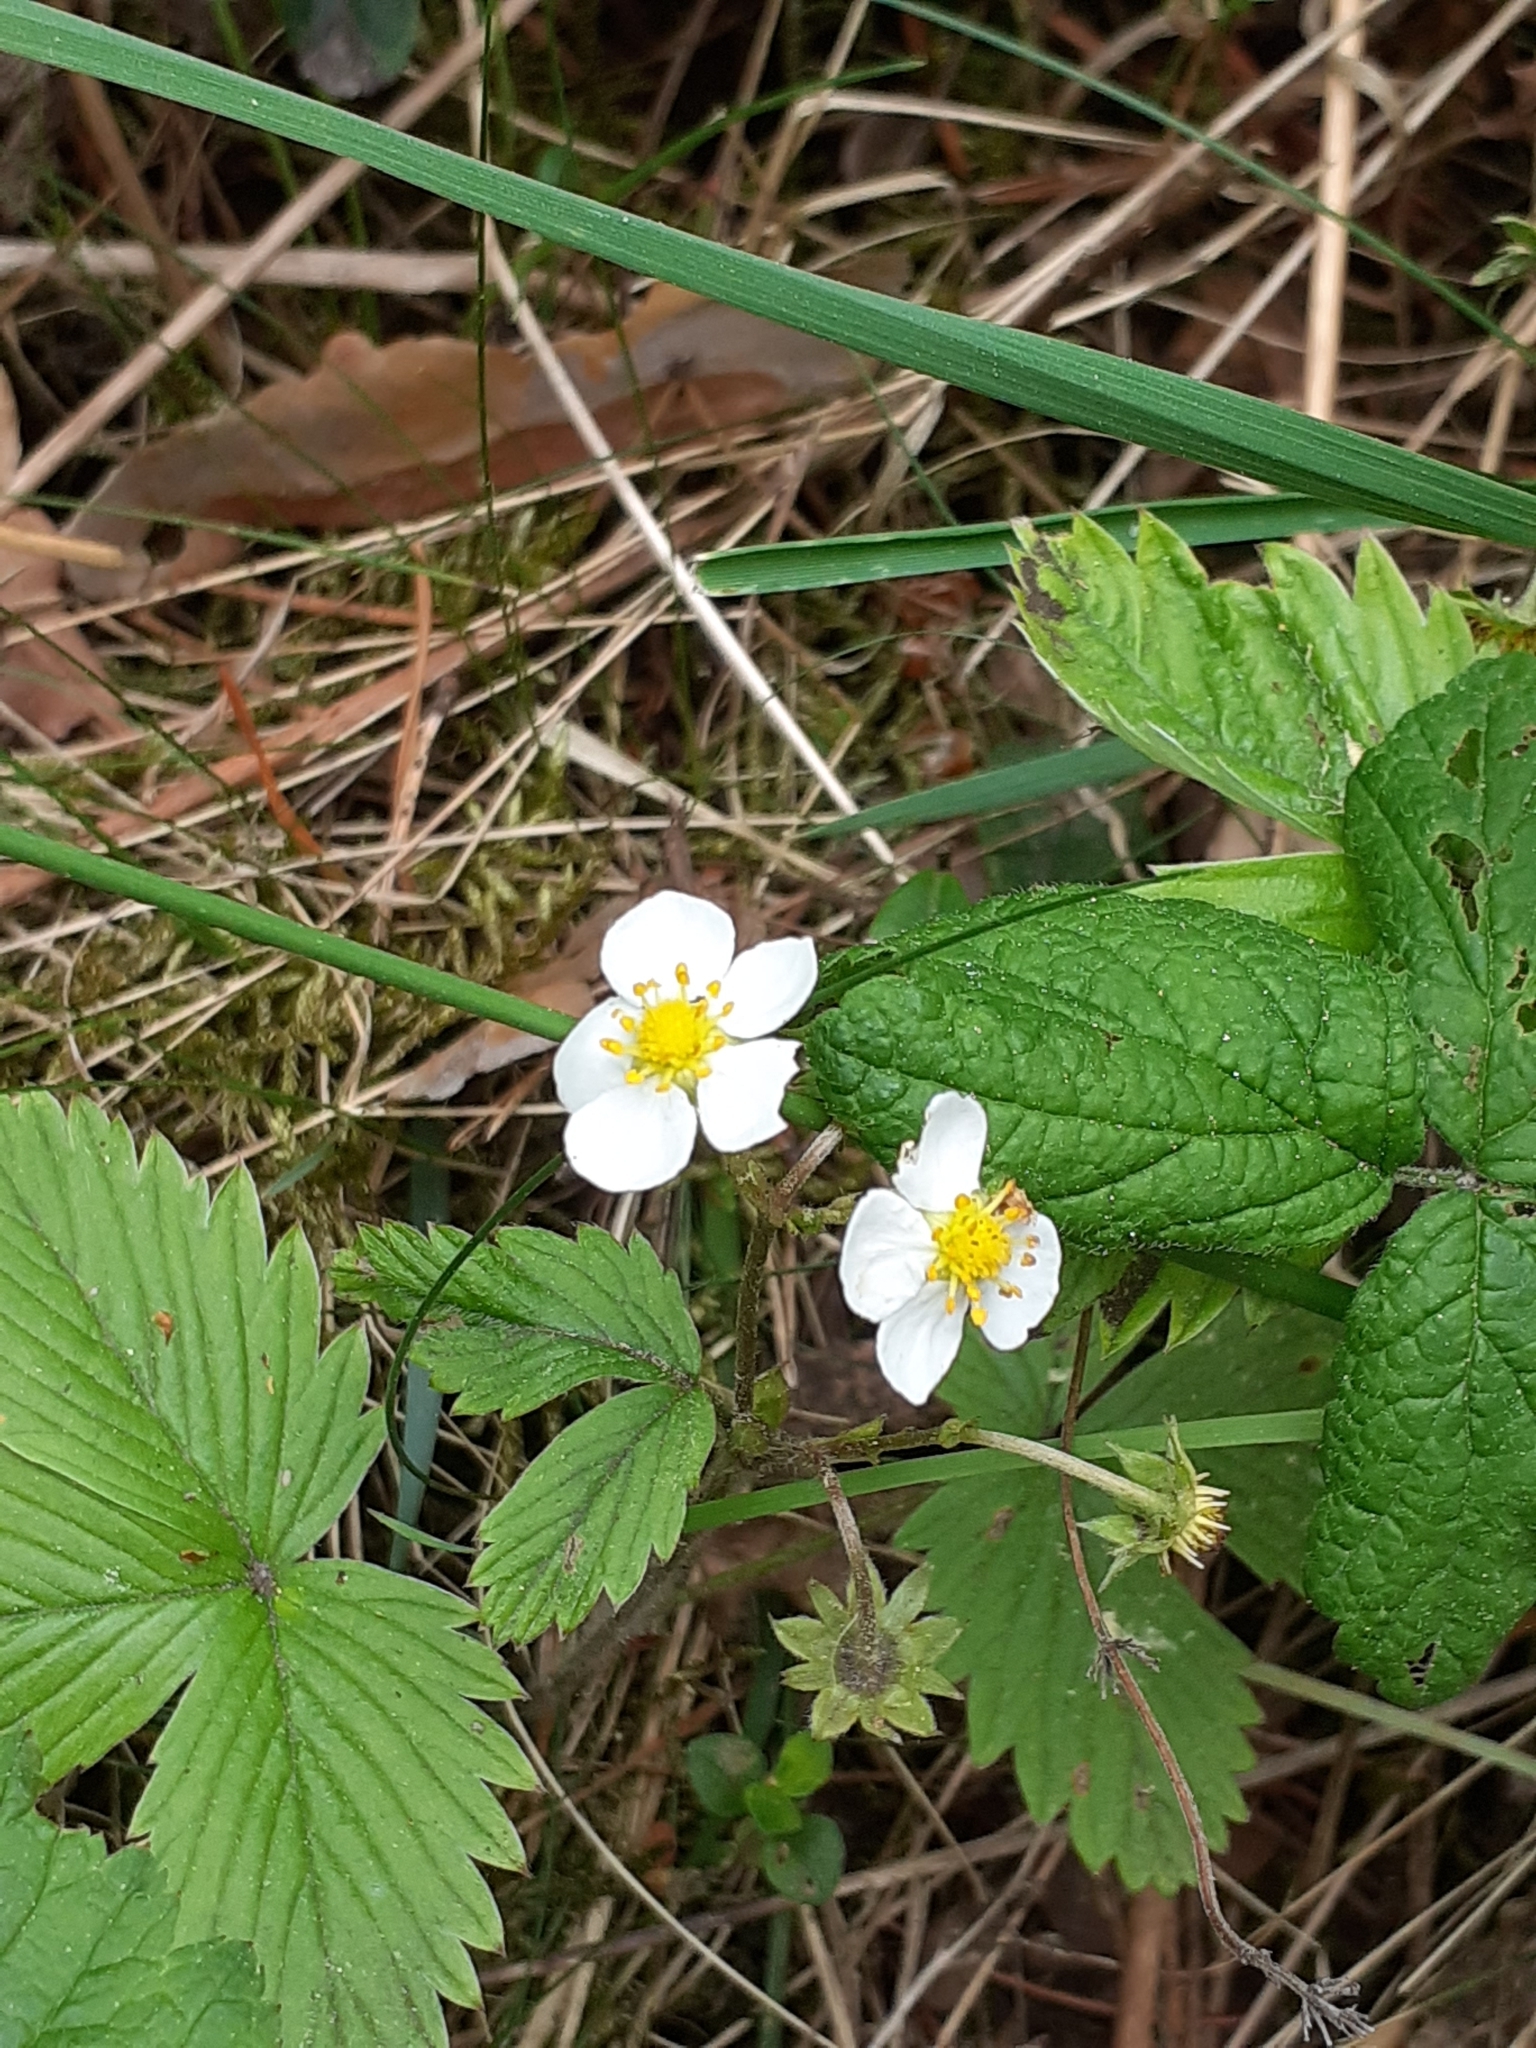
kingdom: Plantae
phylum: Tracheophyta
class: Magnoliopsida
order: Rosales
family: Rosaceae
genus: Fragaria
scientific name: Fragaria vesca
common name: Wild strawberry
